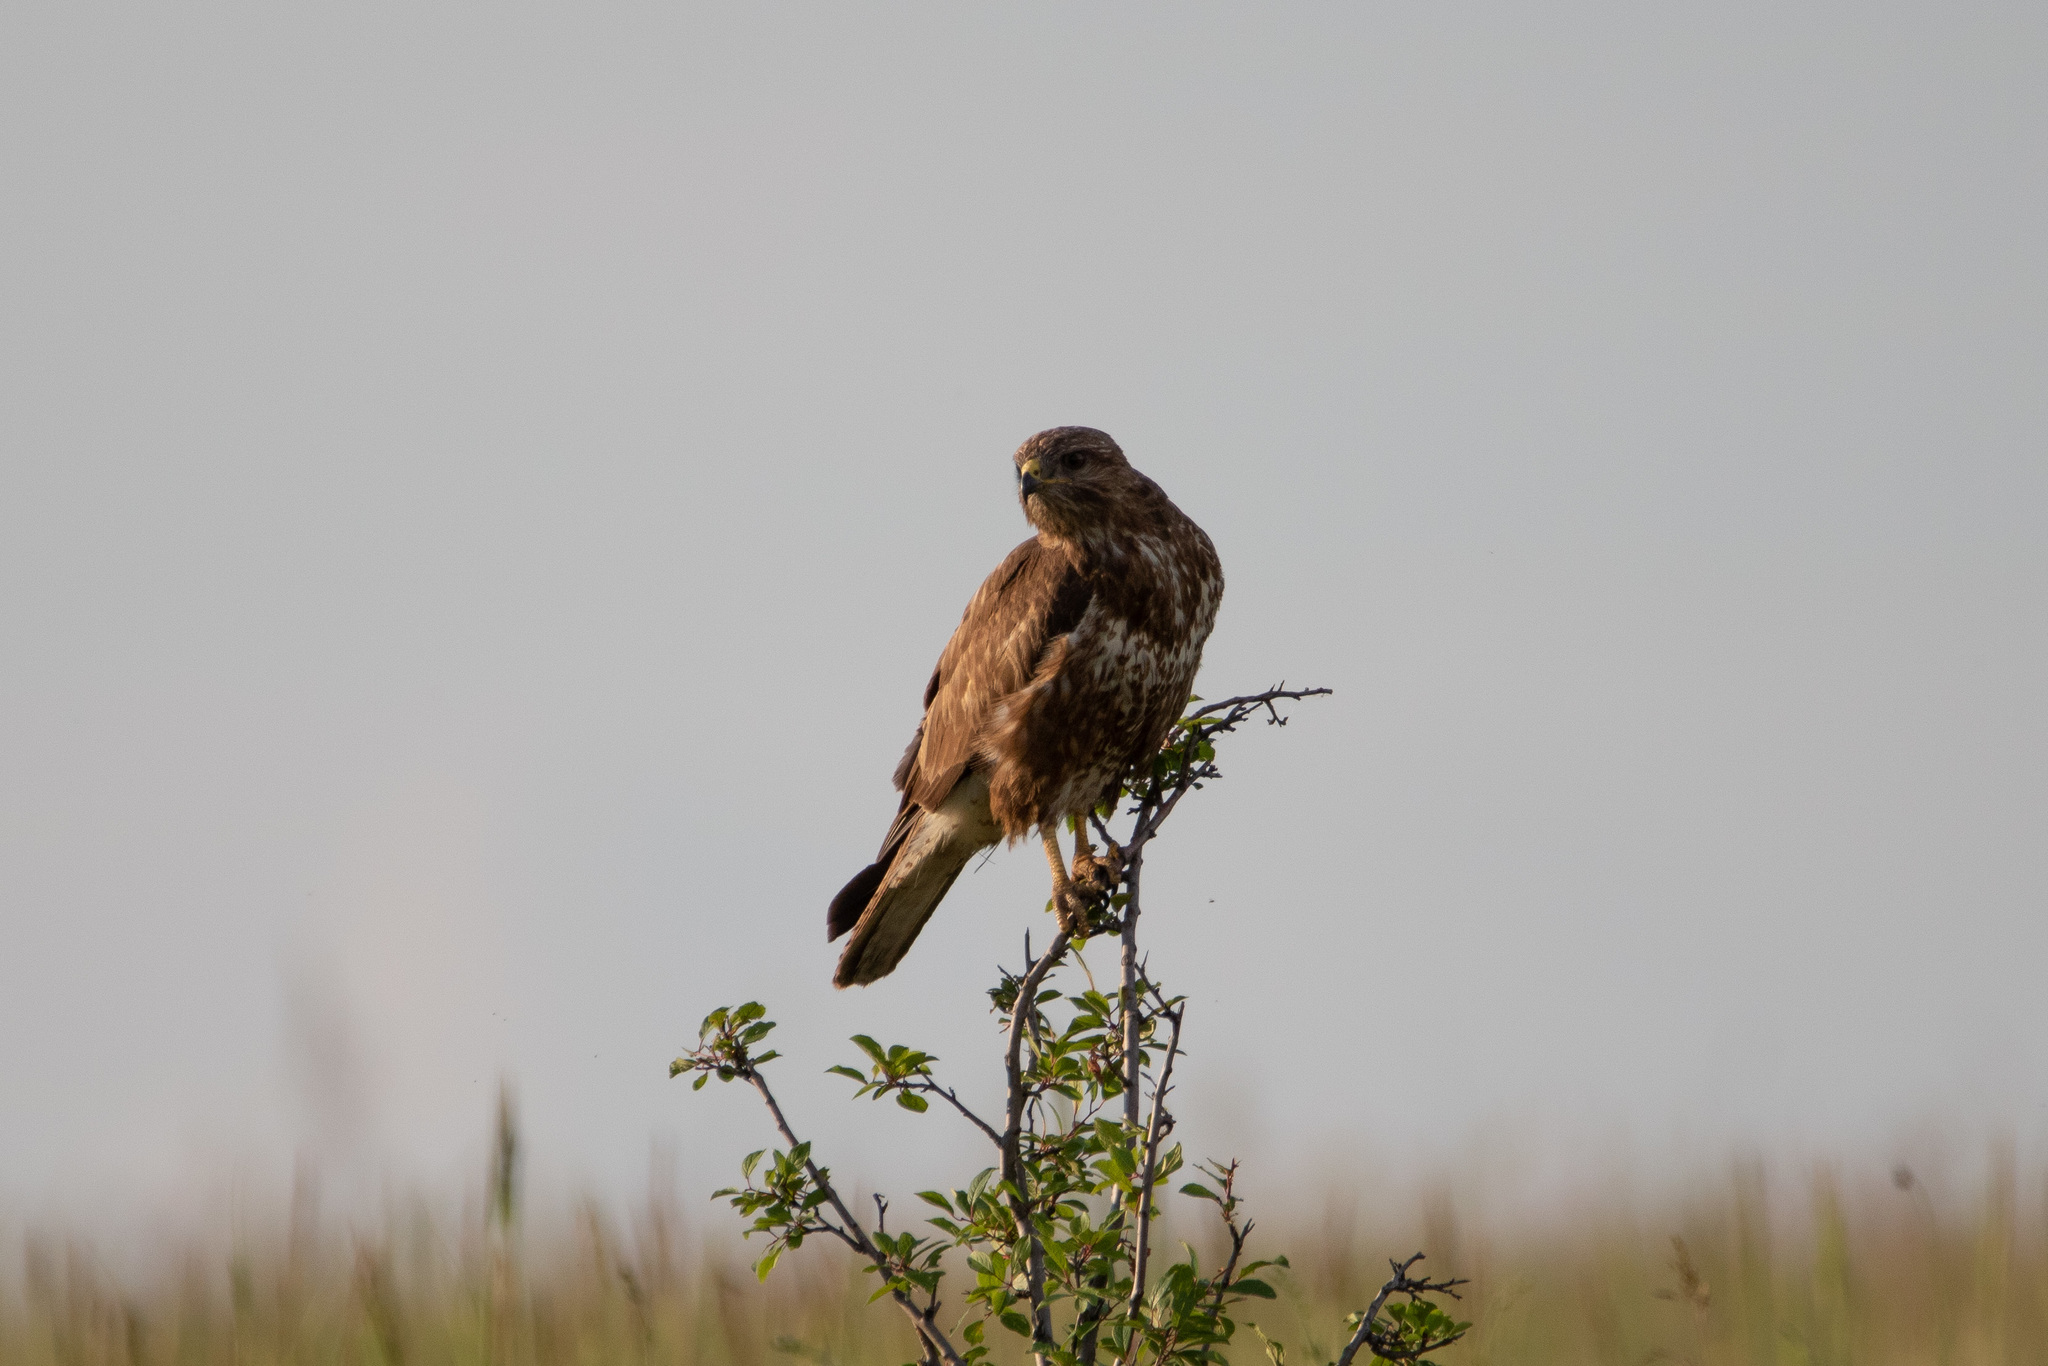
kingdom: Animalia
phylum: Chordata
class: Aves
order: Accipitriformes
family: Accipitridae
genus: Buteo
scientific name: Buteo buteo
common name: Common buzzard
